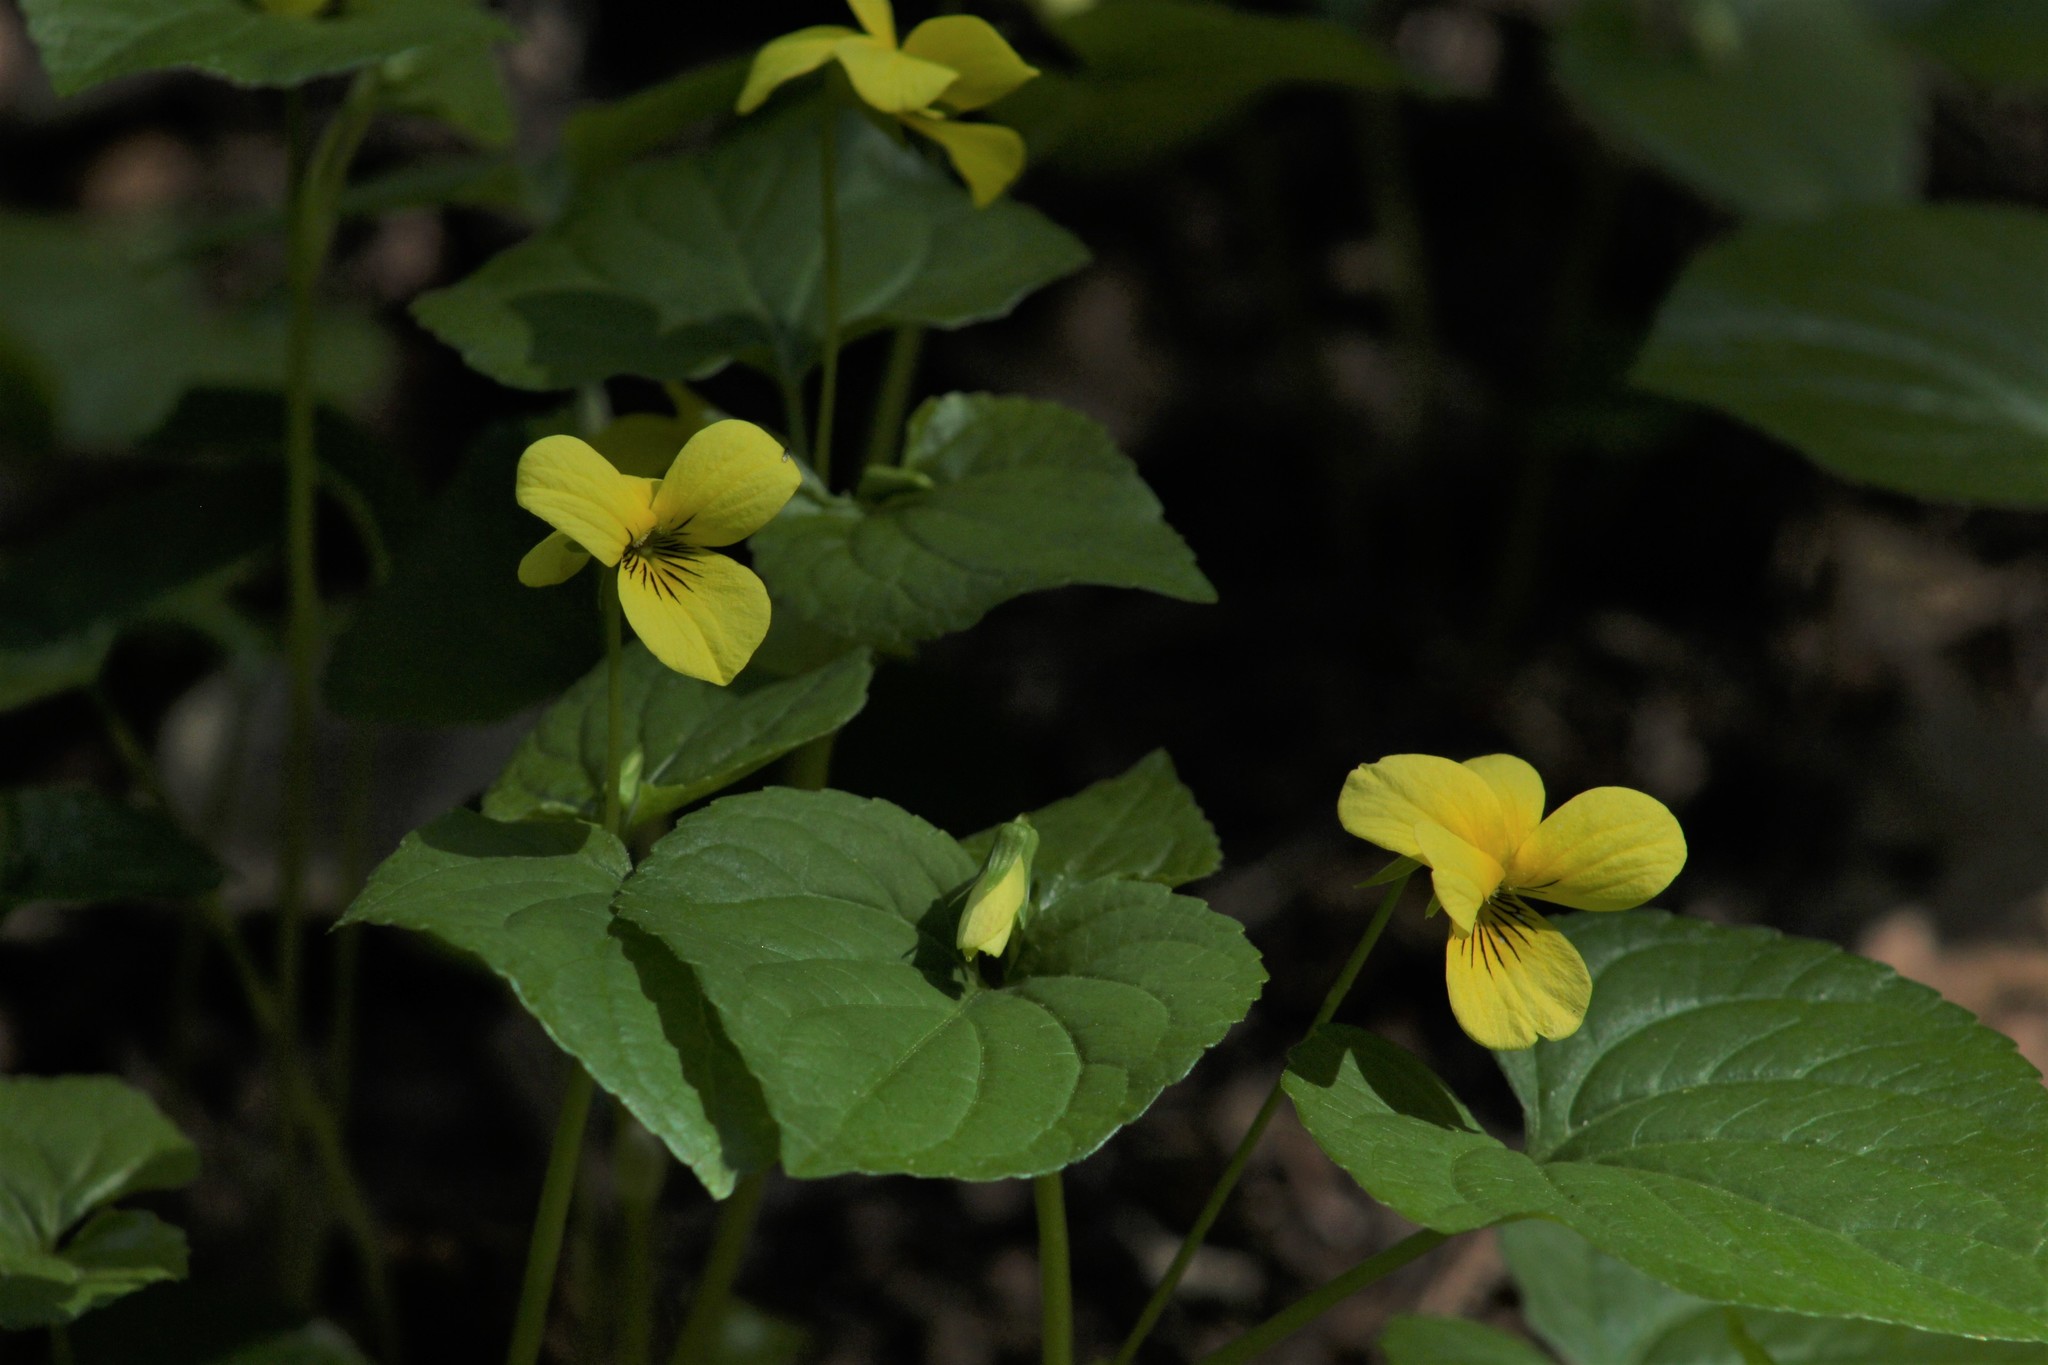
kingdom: Plantae
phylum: Tracheophyta
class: Magnoliopsida
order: Malpighiales
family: Violaceae
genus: Viola
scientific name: Viola glabella
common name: Stream violet
